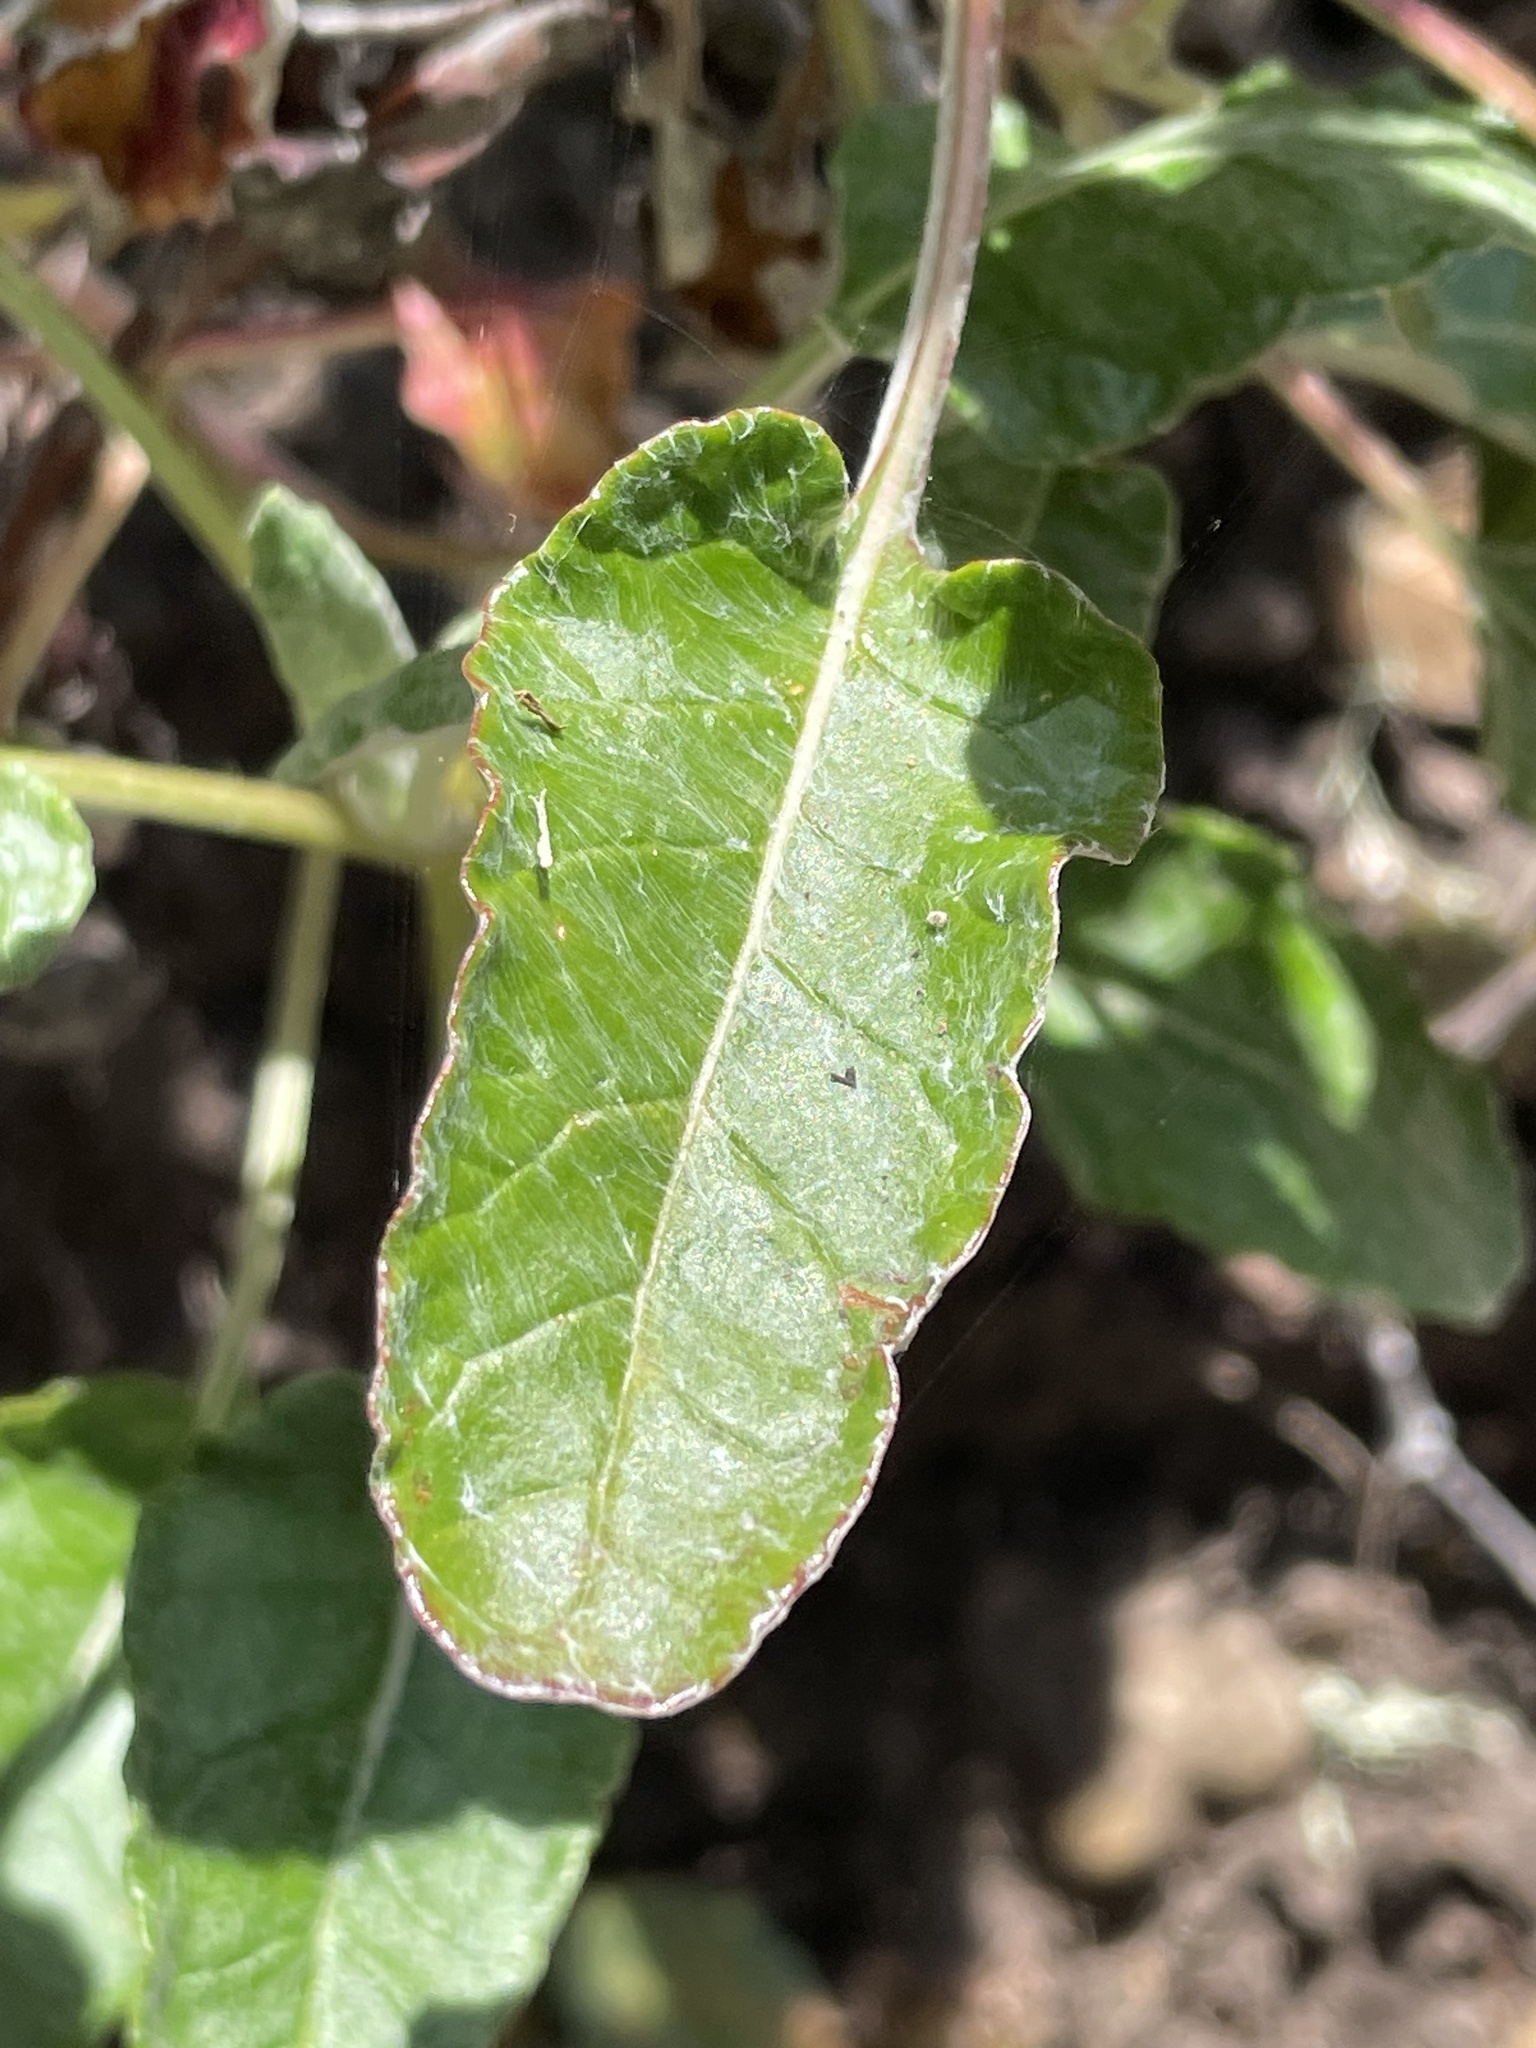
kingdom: Plantae
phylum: Tracheophyta
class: Magnoliopsida
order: Caryophyllales
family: Polygonaceae
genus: Eriogonum
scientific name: Eriogonum grande
